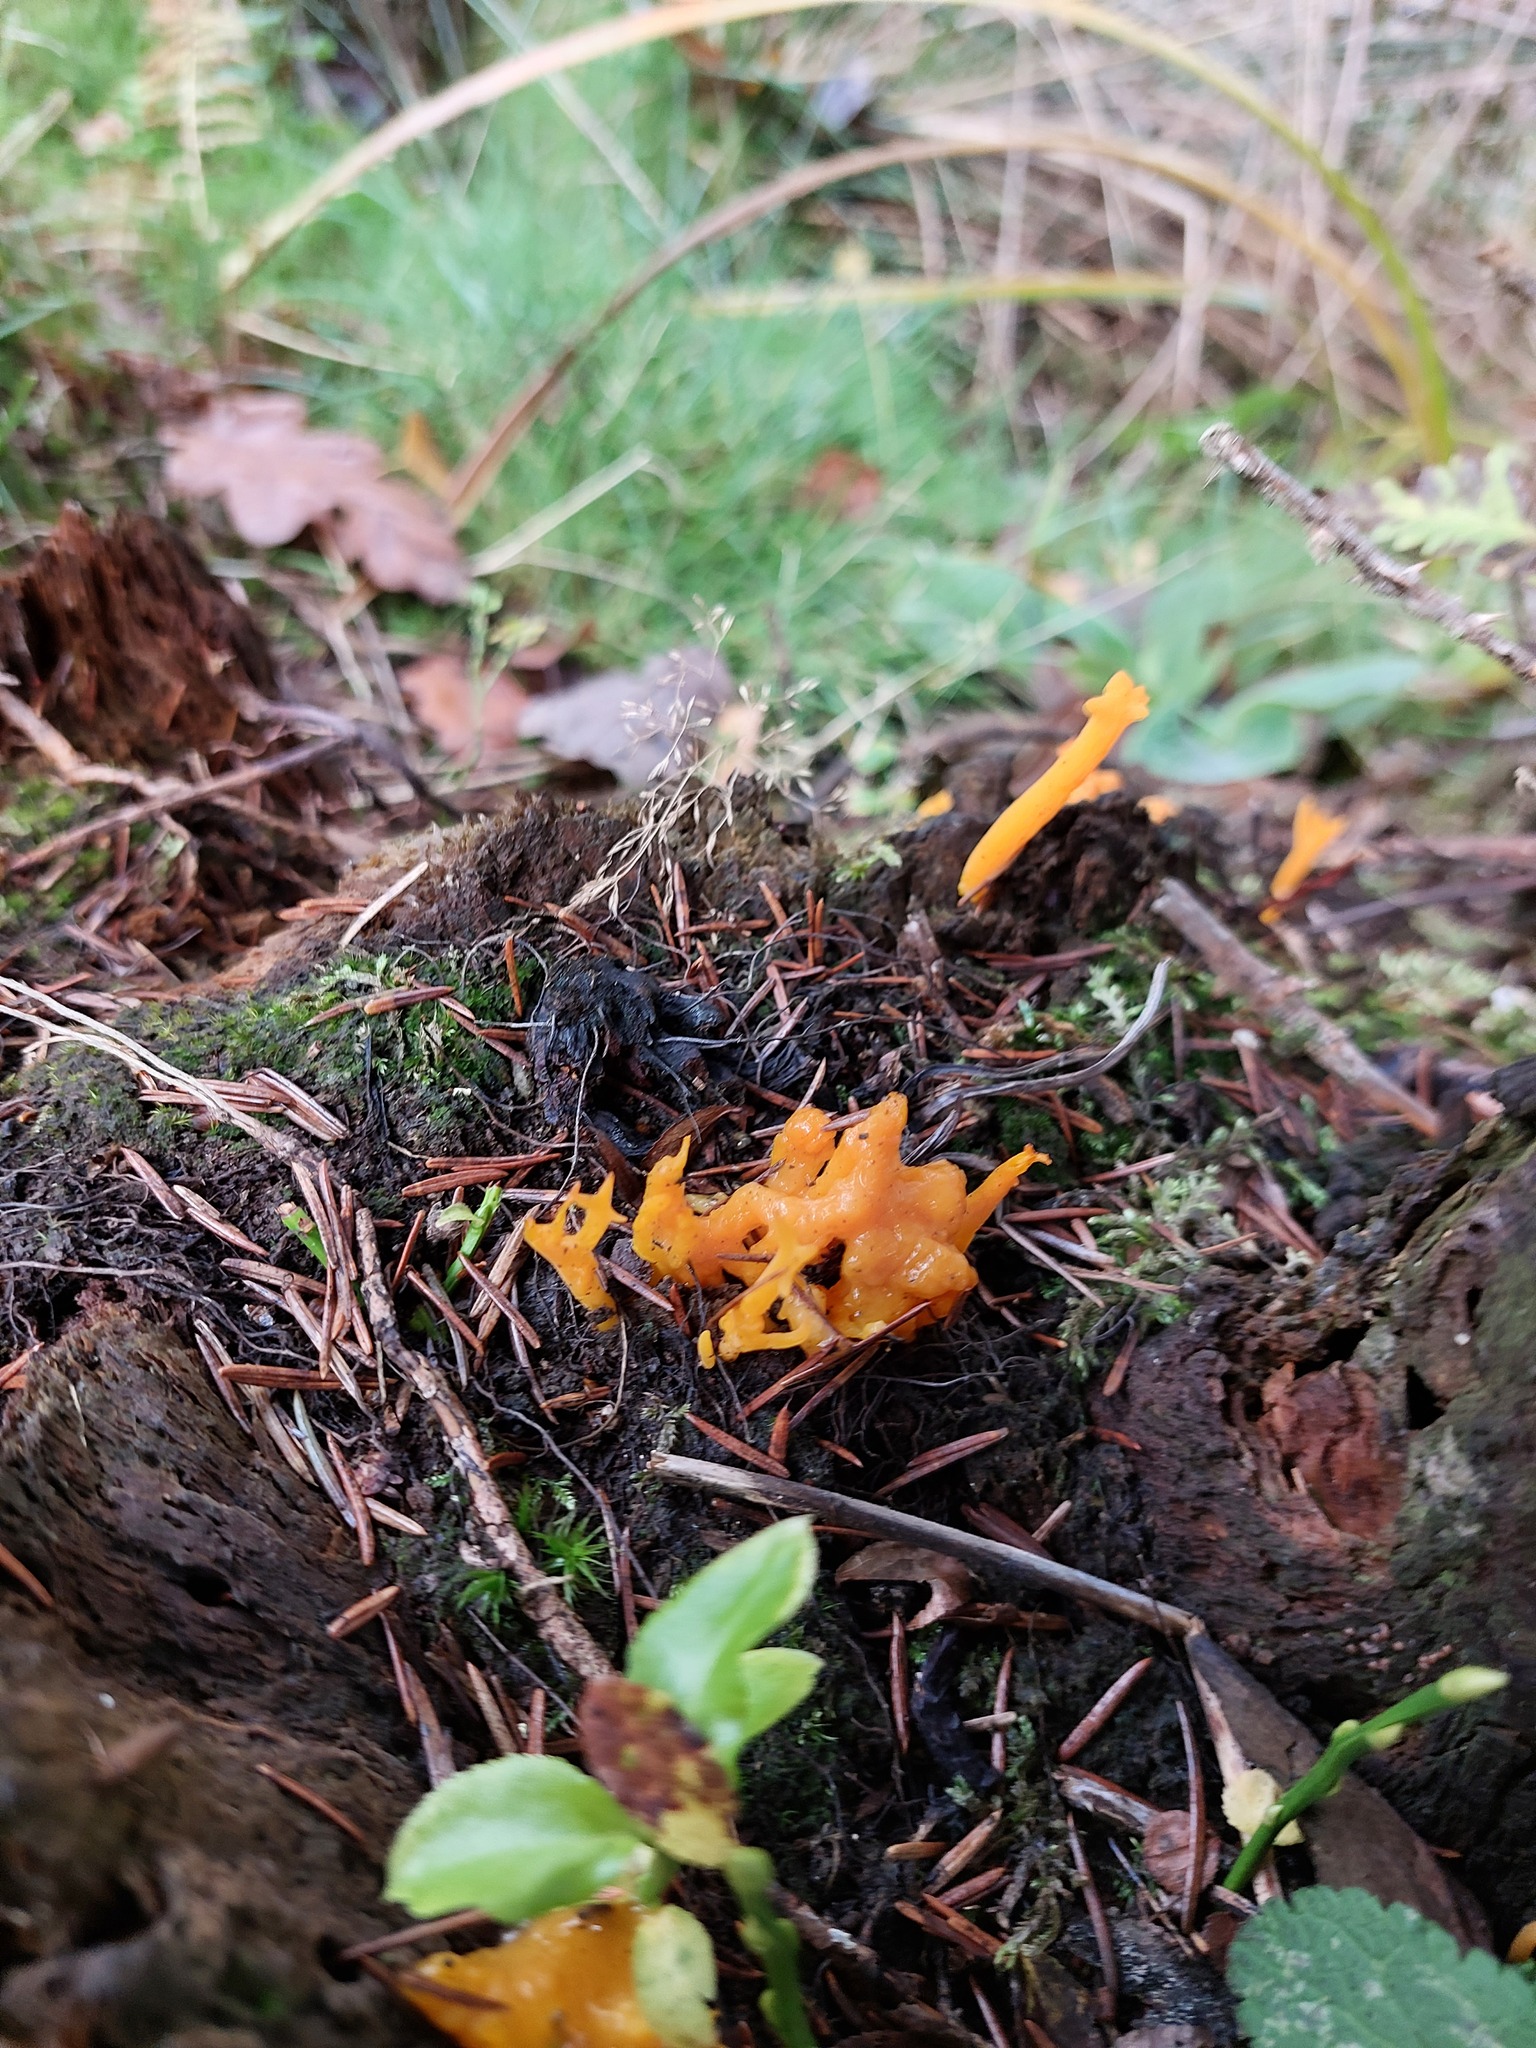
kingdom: Fungi
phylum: Basidiomycota
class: Dacrymycetes
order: Dacrymycetales
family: Dacrymycetaceae
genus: Calocera
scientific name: Calocera viscosa
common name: Yellow stagshorn
